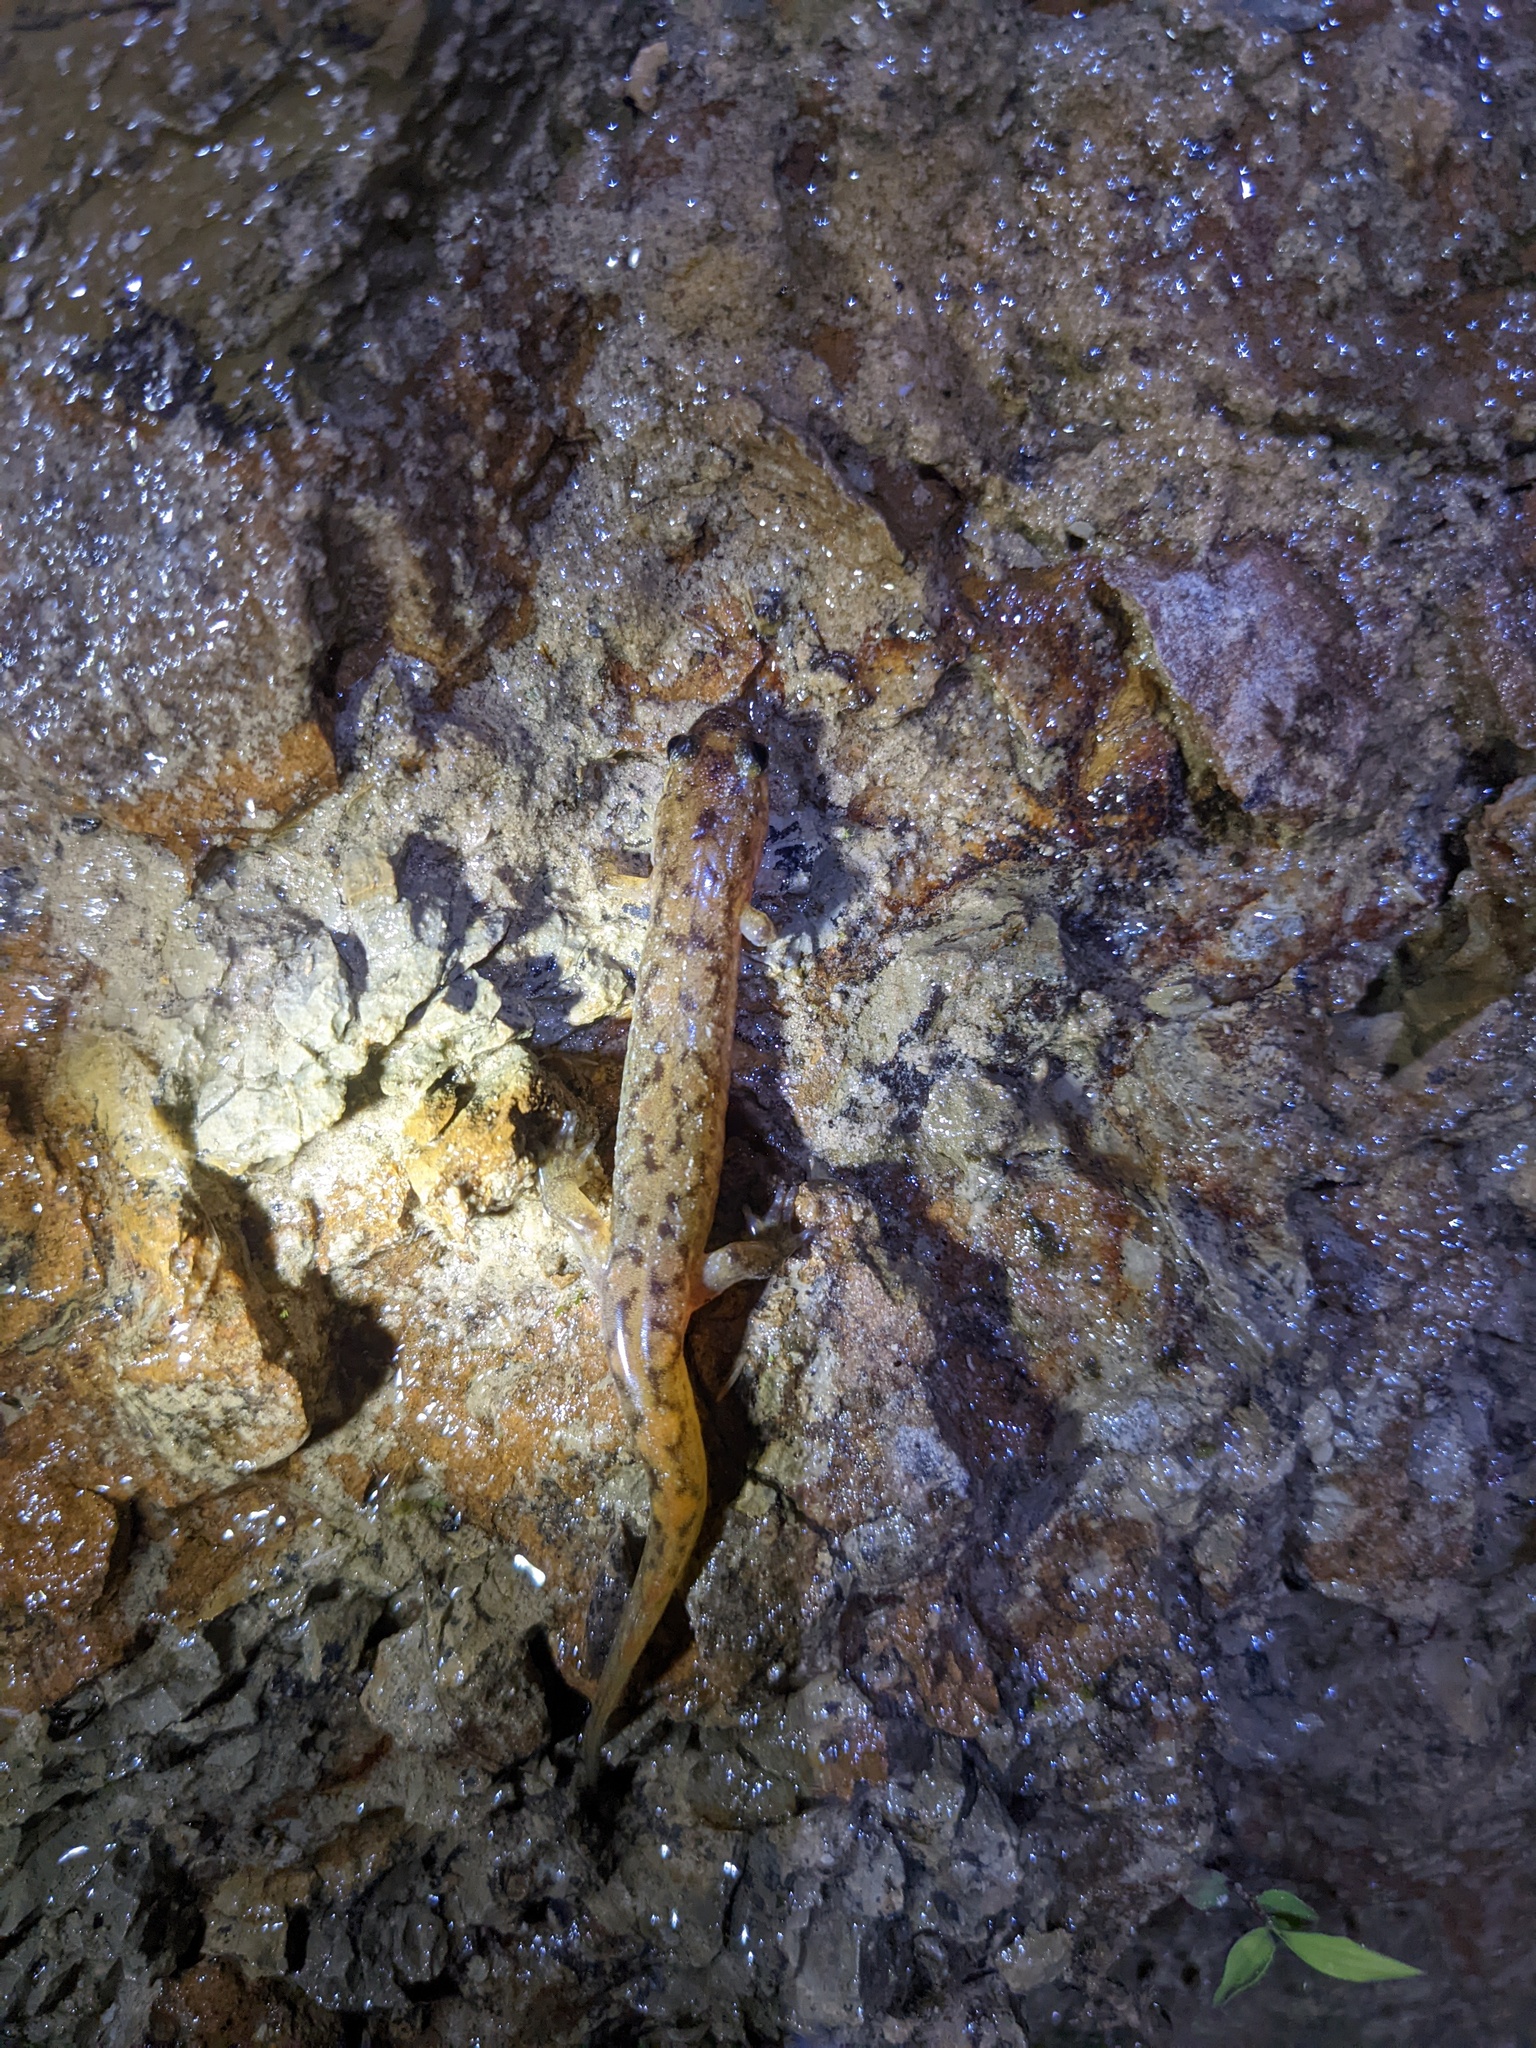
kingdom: Animalia
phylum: Chordata
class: Amphibia
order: Caudata
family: Plethodontidae
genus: Desmognathus
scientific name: Desmognathus monticola
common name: Seal salamander
